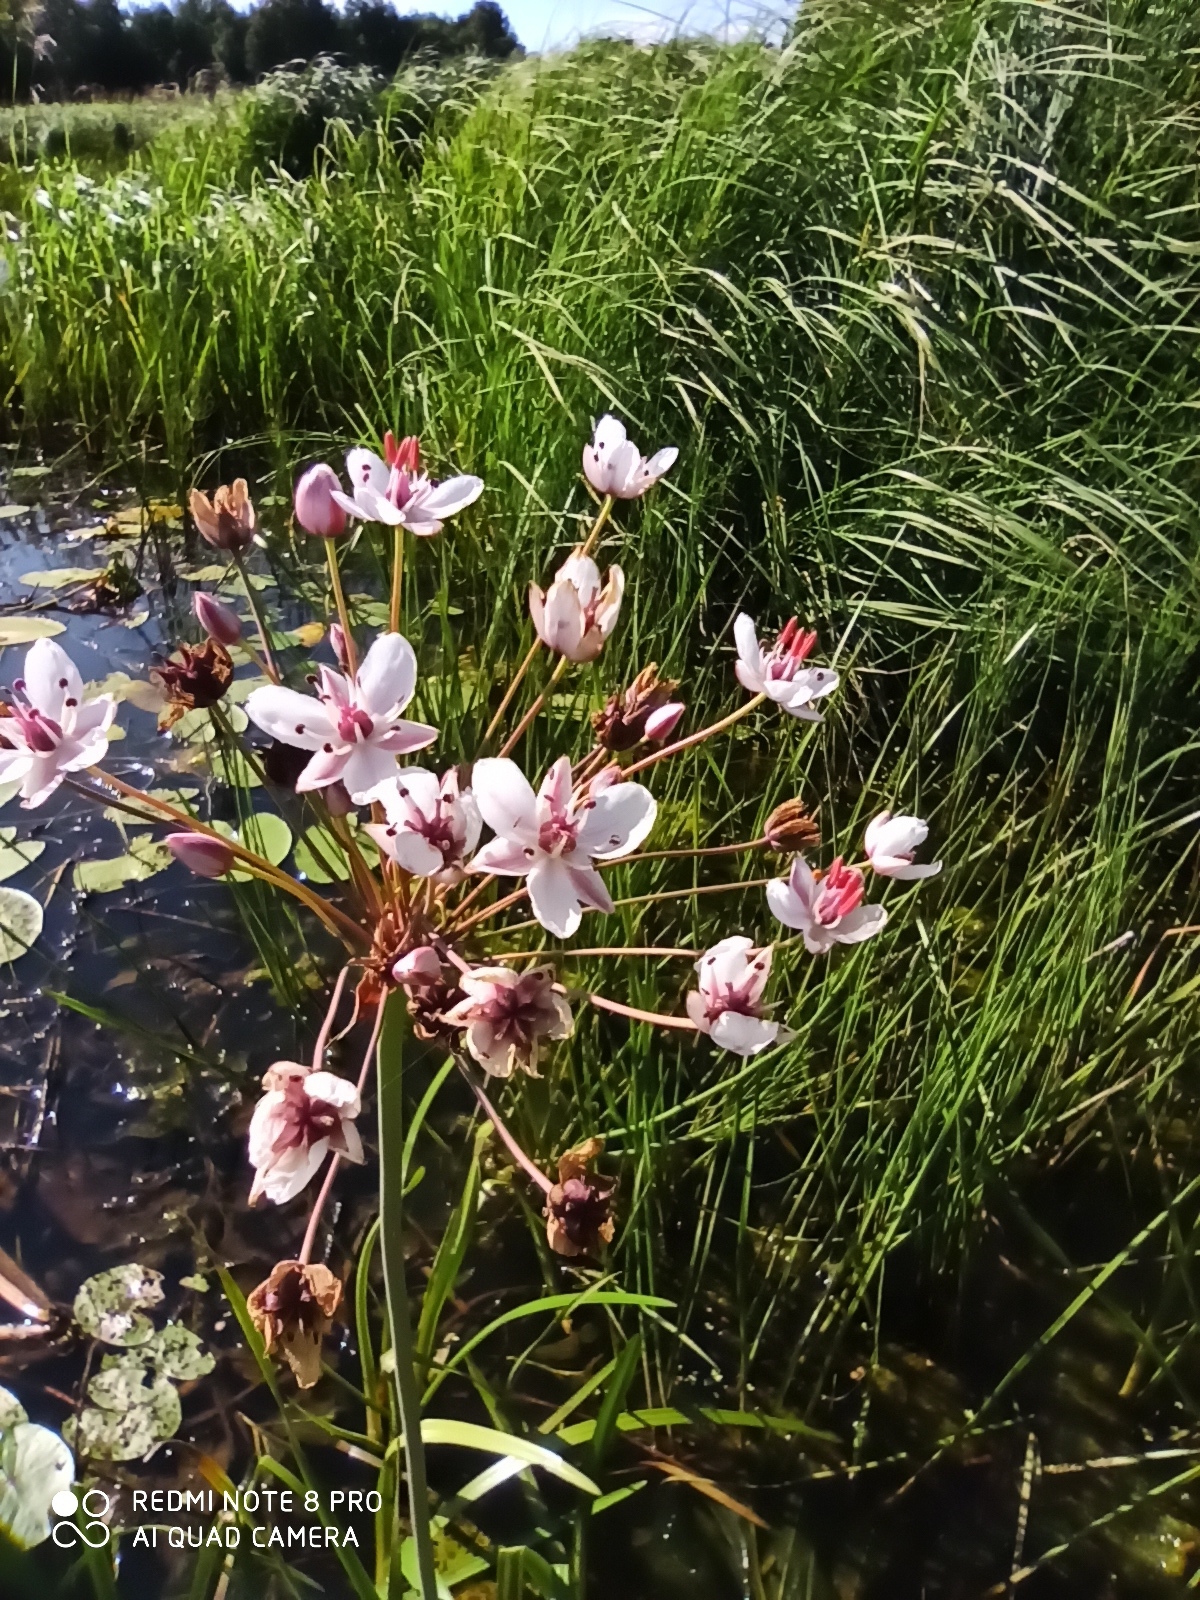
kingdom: Plantae
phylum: Tracheophyta
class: Liliopsida
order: Alismatales
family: Butomaceae
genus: Butomus
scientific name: Butomus umbellatus
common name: Flowering-rush
